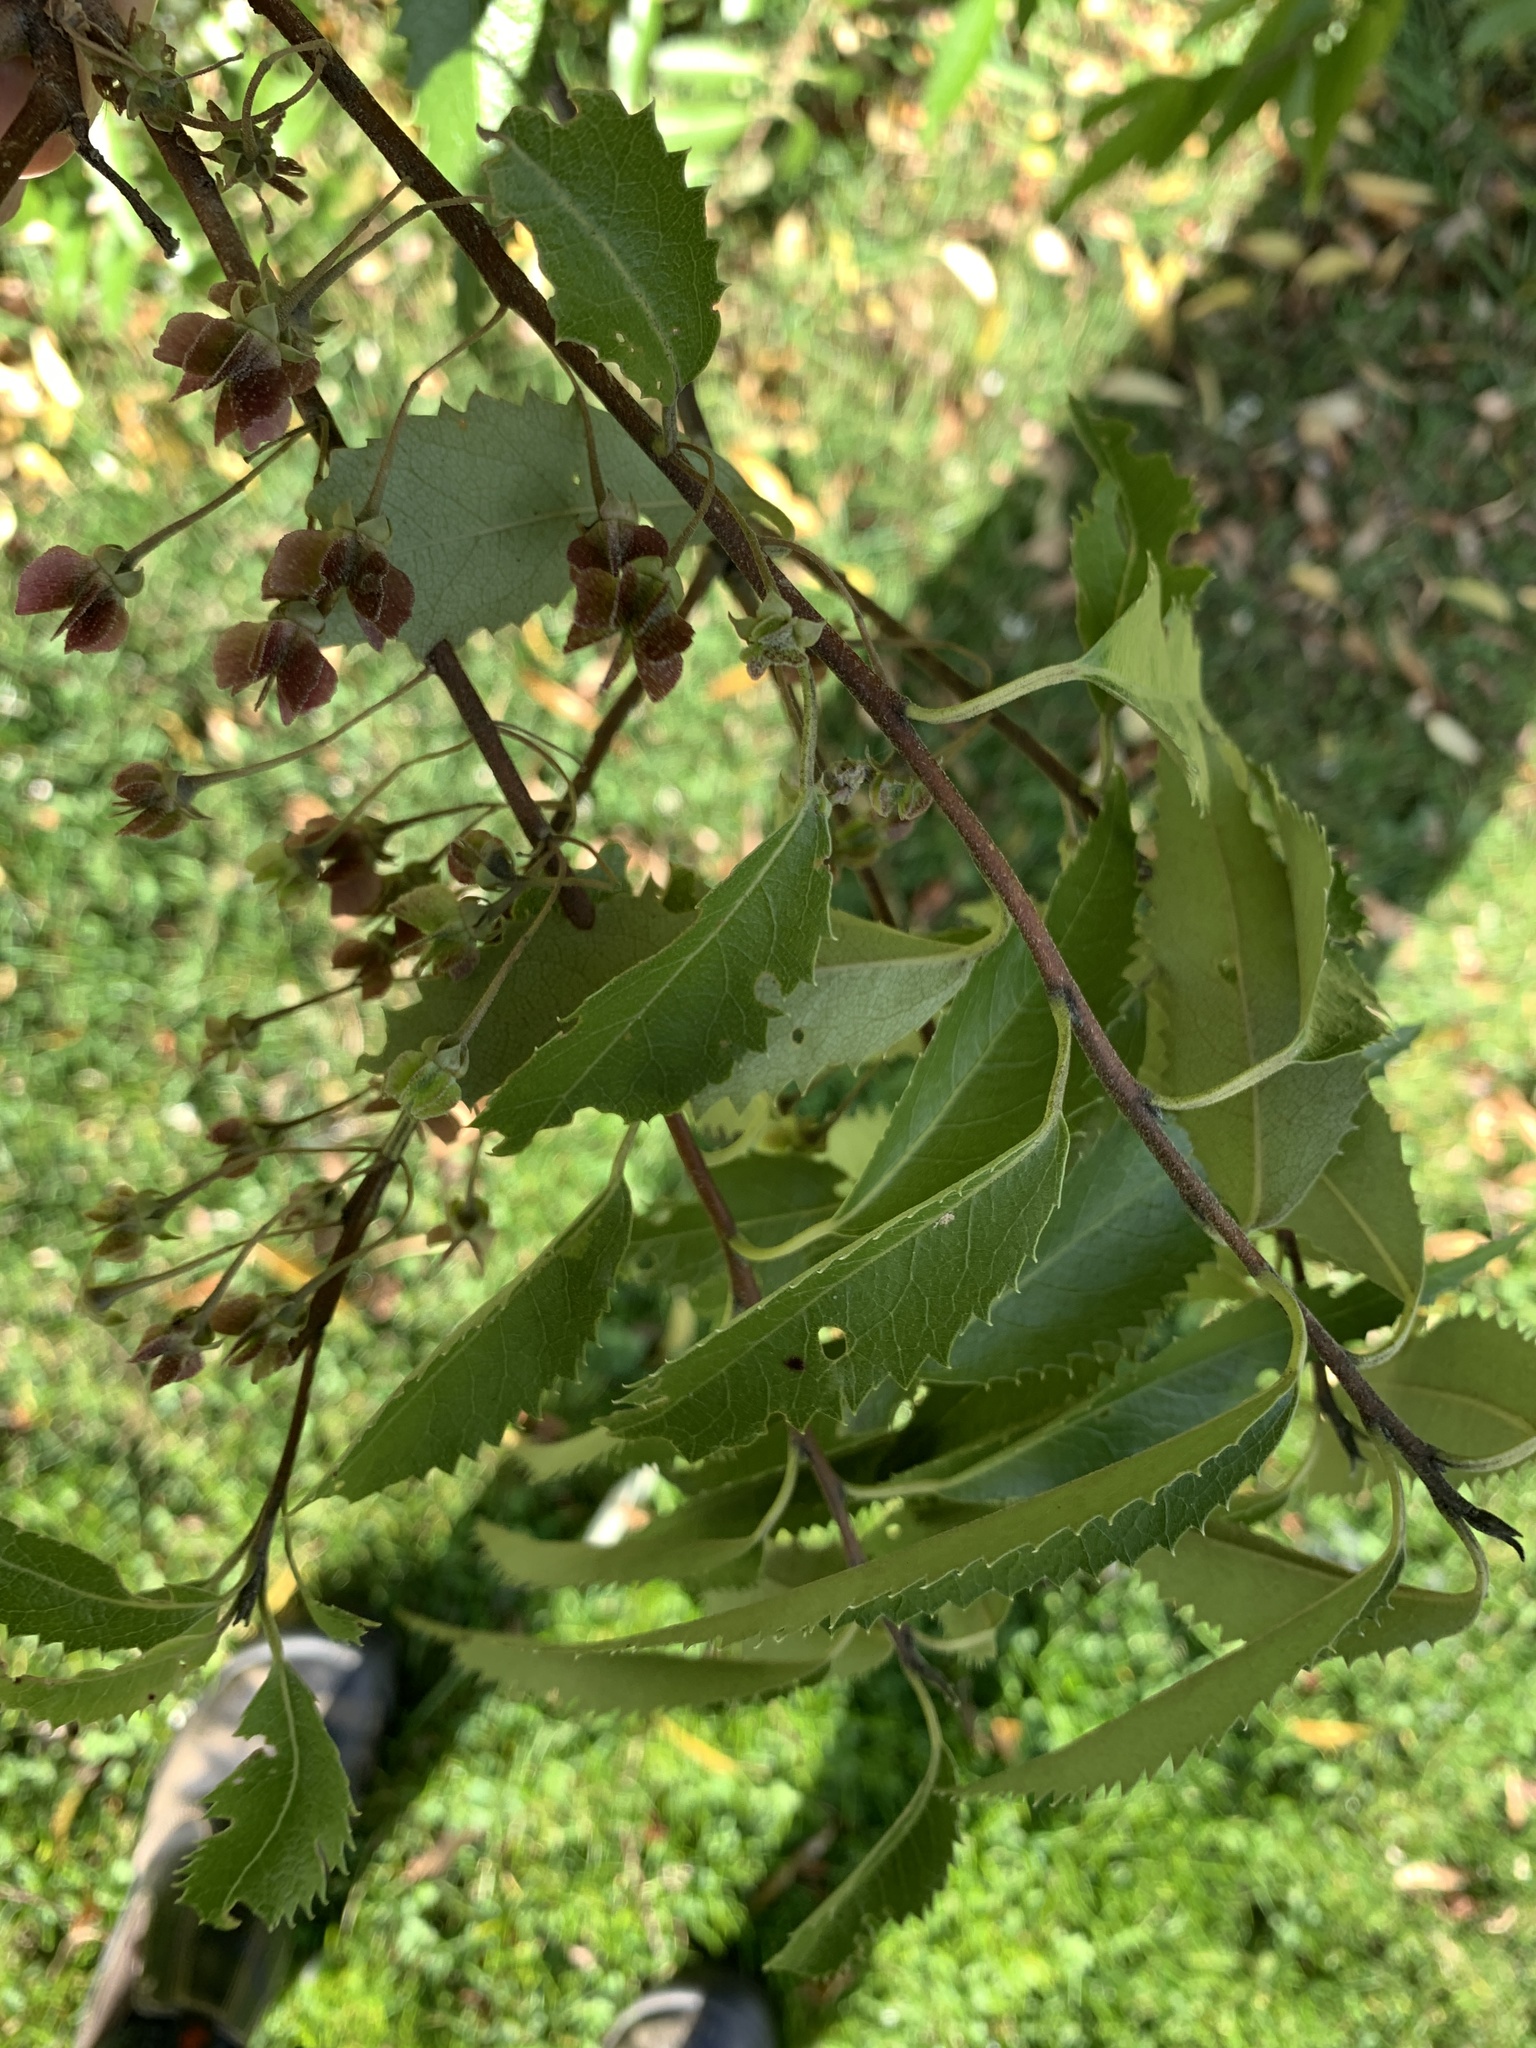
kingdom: Plantae
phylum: Tracheophyta
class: Magnoliopsida
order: Malvales
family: Malvaceae
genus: Hoheria
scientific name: Hoheria sexstylosa
